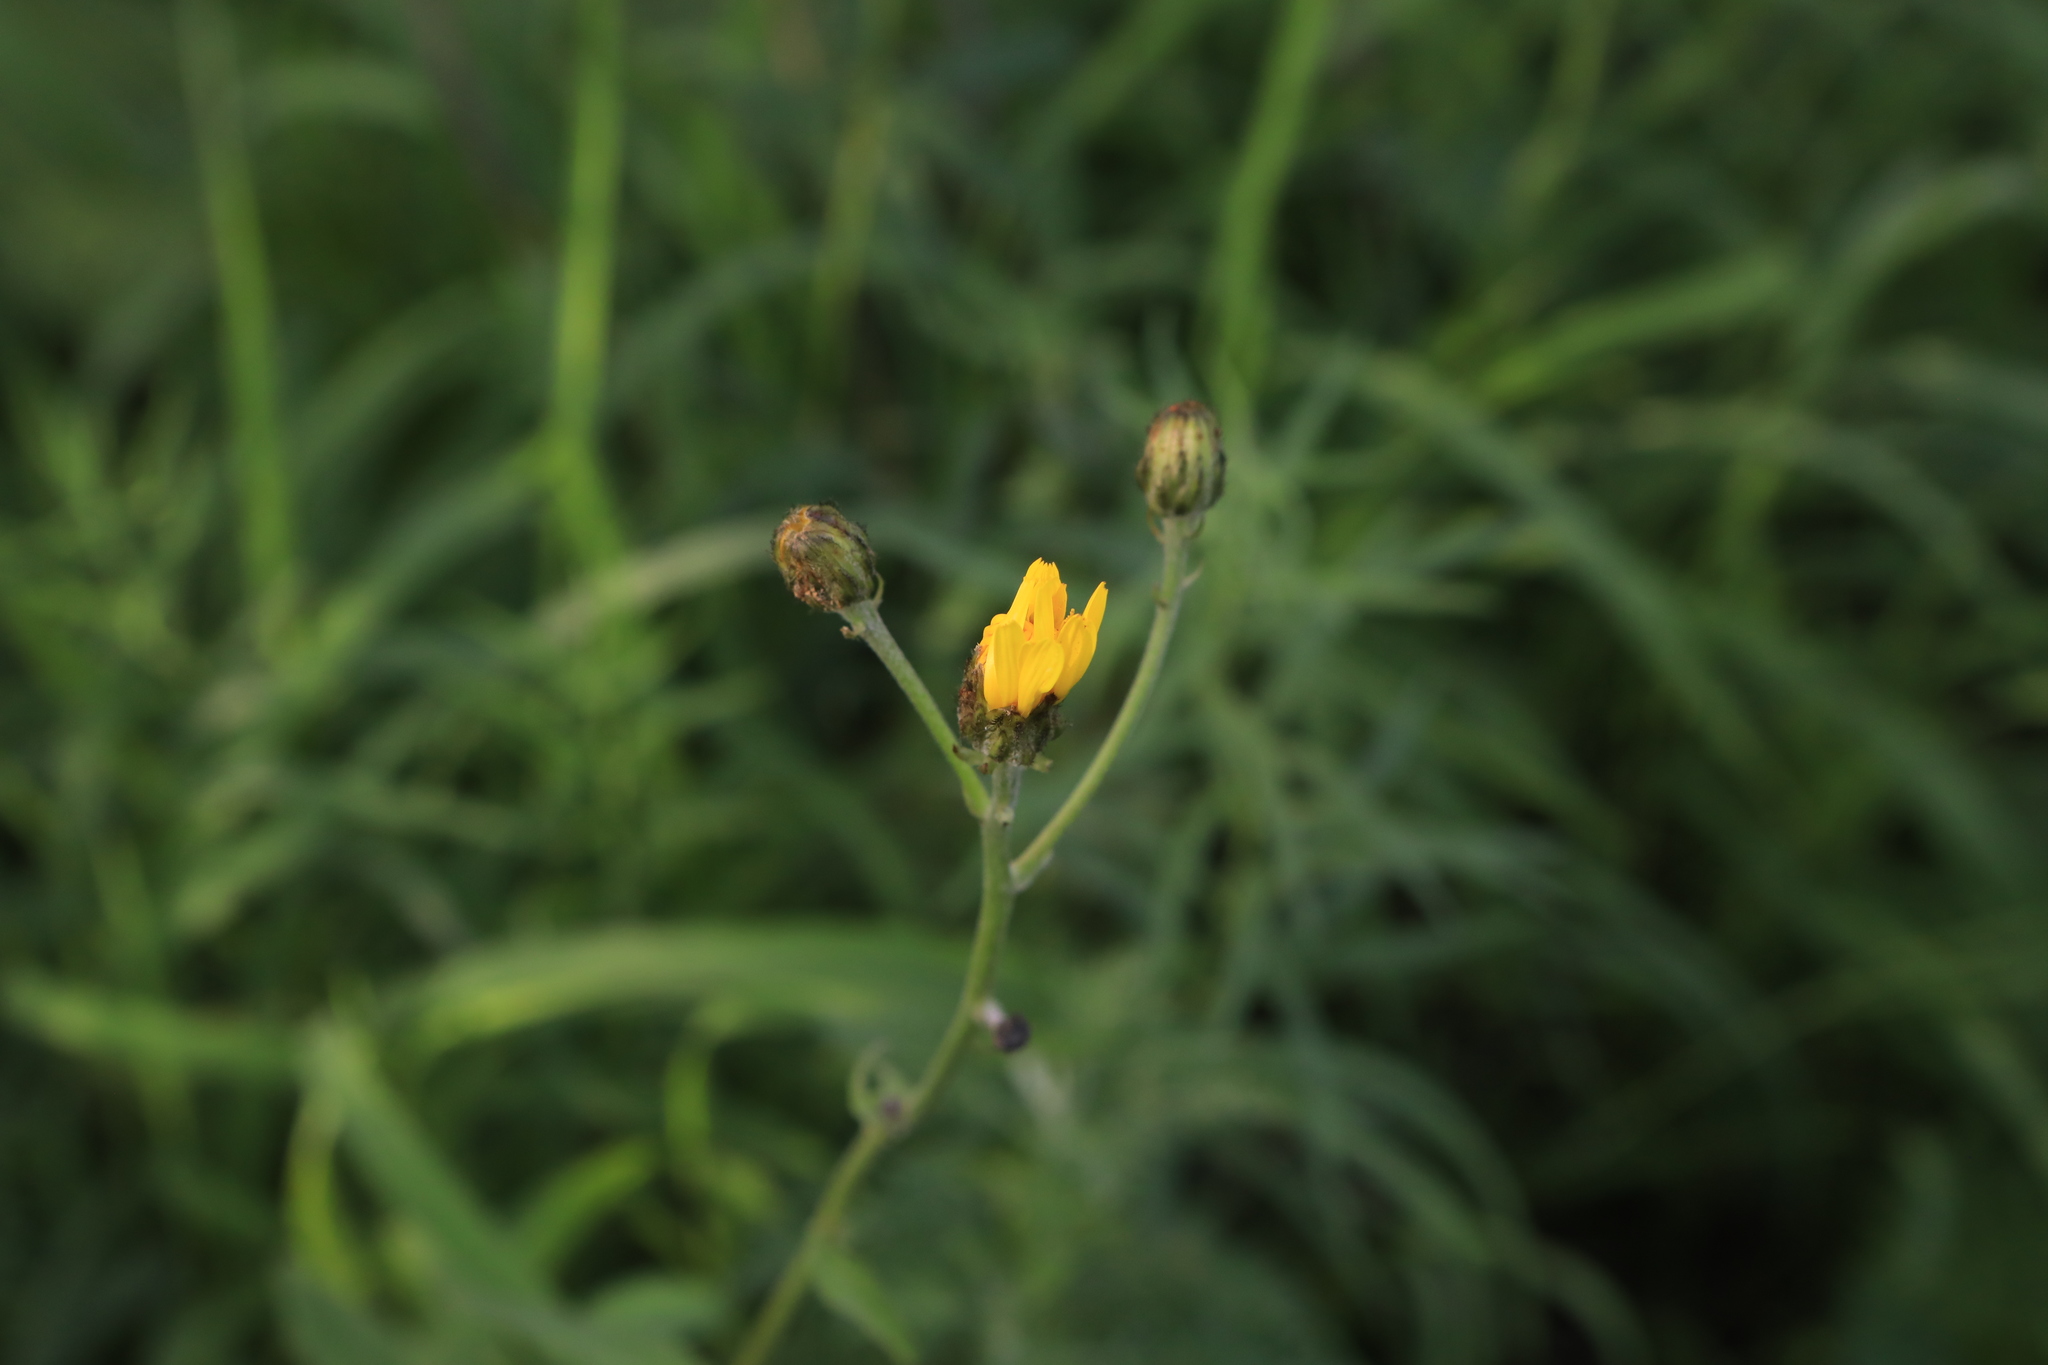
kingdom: Plantae
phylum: Tracheophyta
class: Magnoliopsida
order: Asterales
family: Asteraceae
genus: Crepis
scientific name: Crepis sibirica
